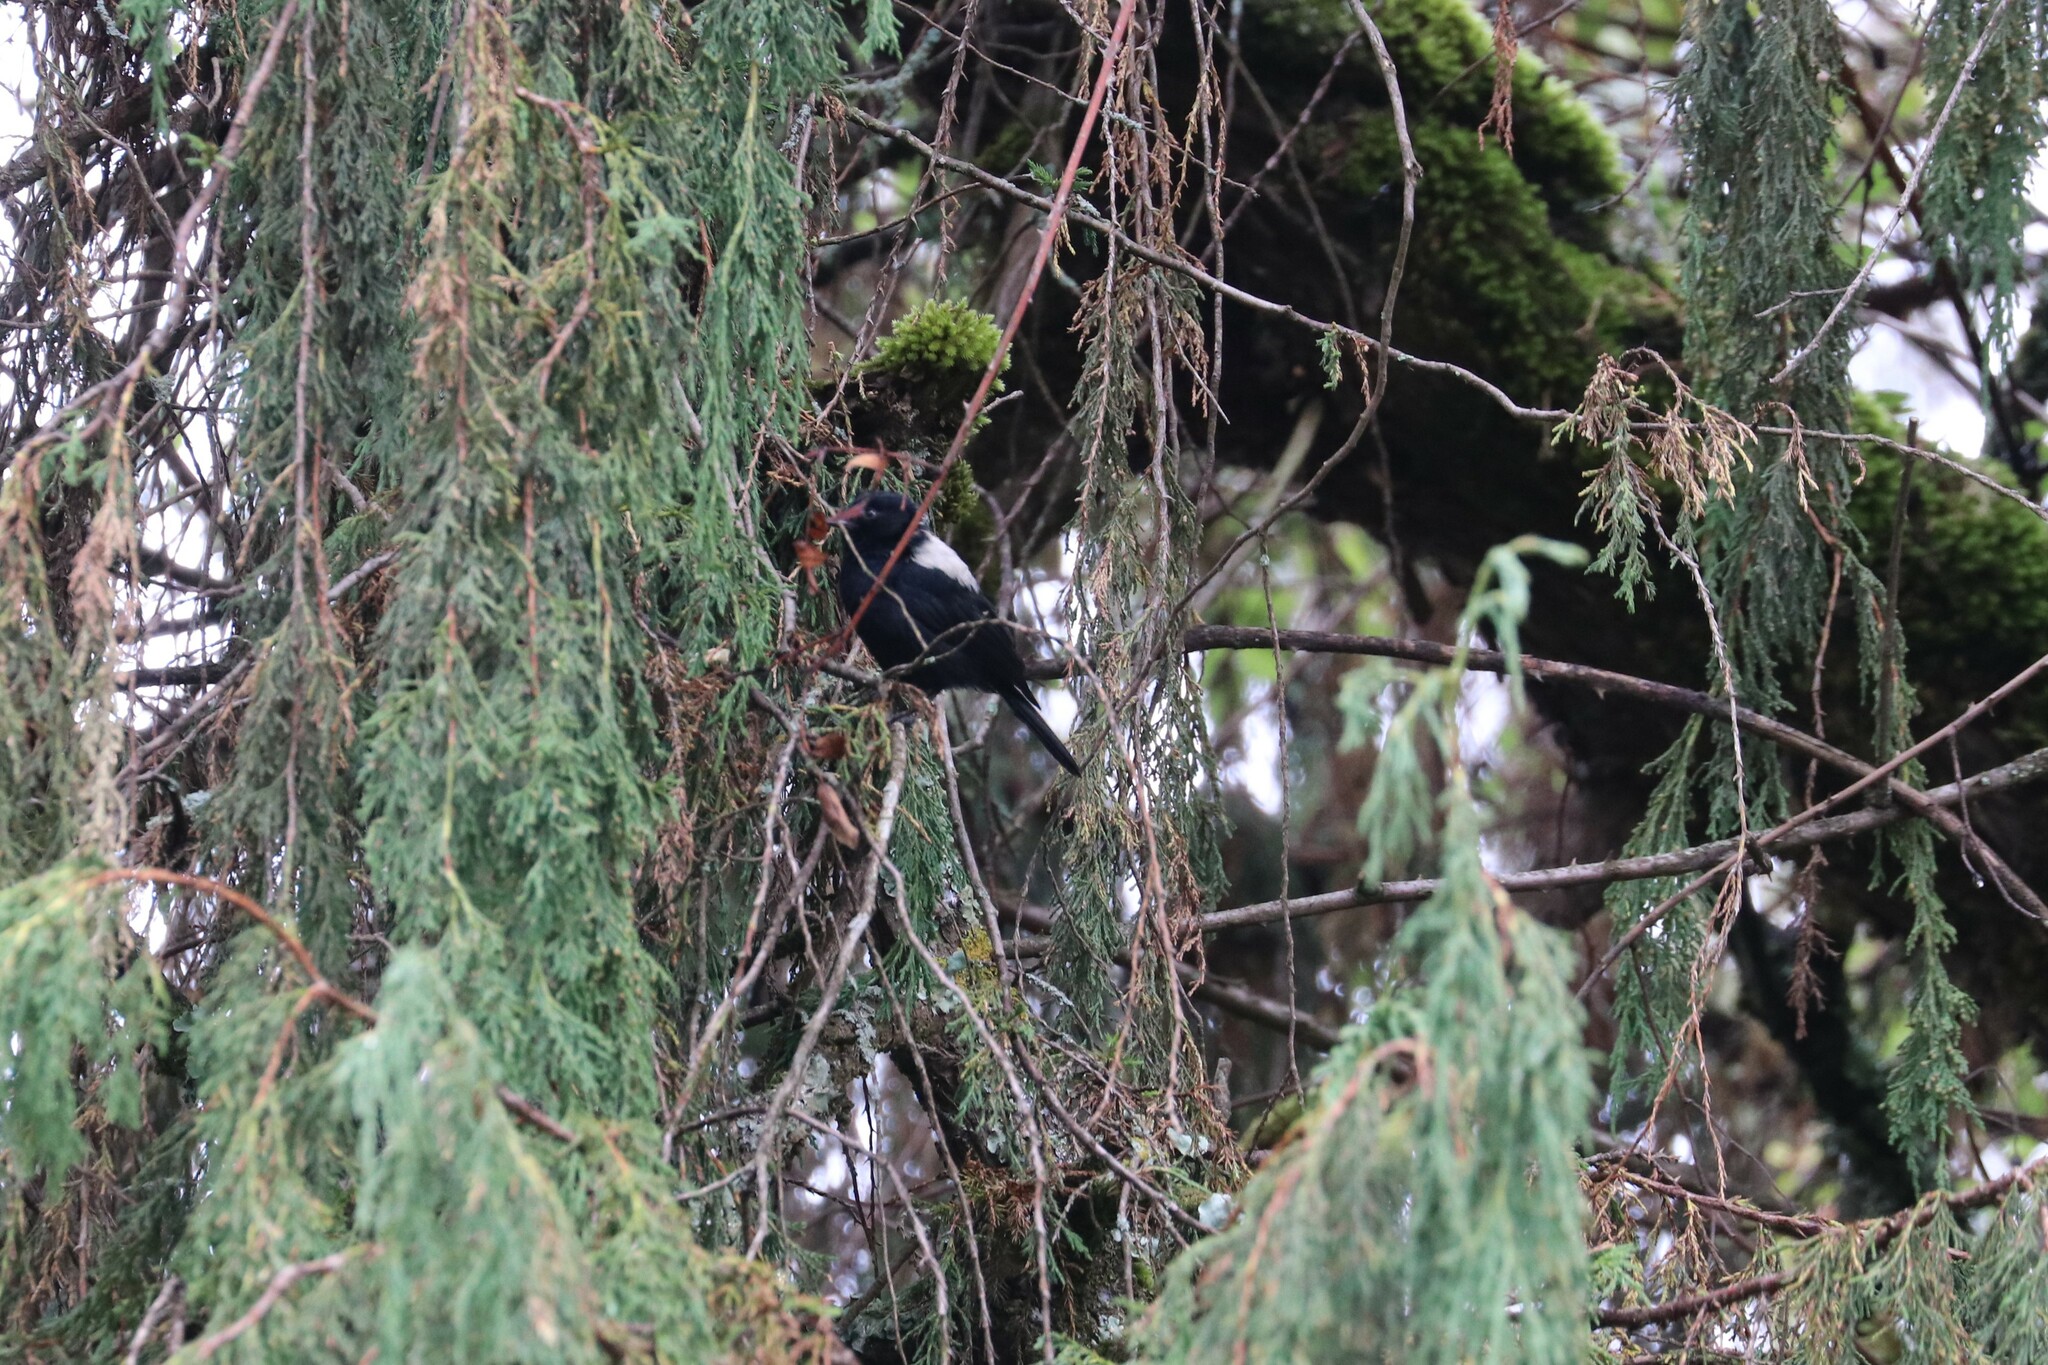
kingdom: Animalia
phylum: Chordata
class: Aves
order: Passeriformes
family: Paridae
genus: Parus
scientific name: Parus leuconotus
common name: White-backed black tit
